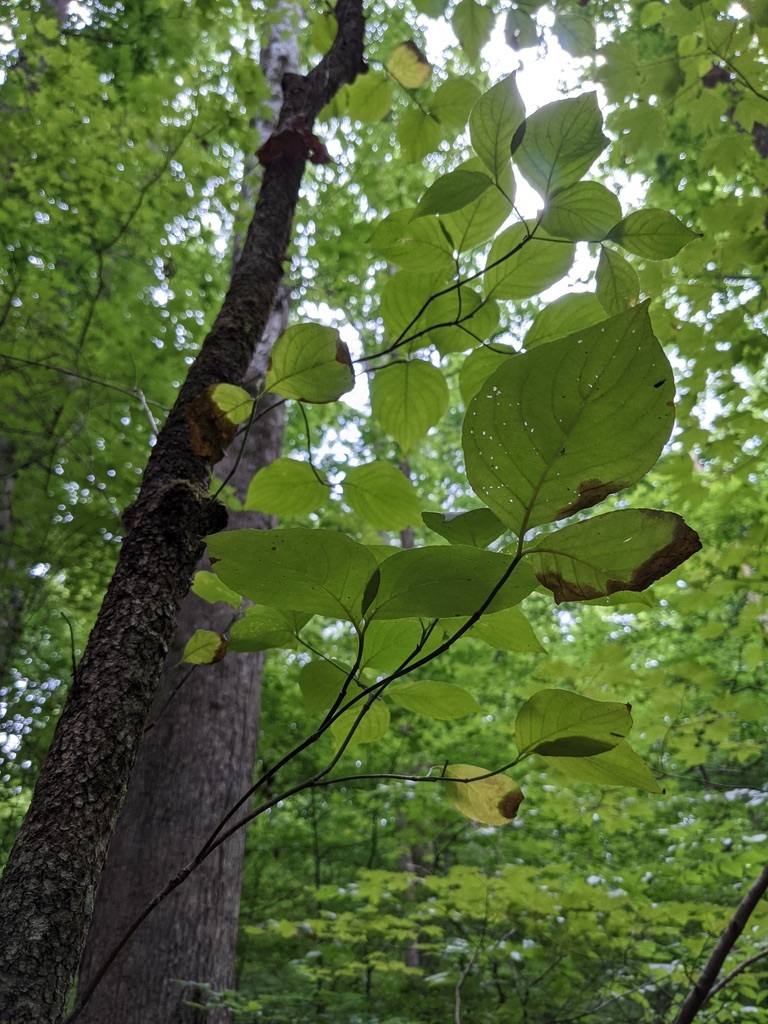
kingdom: Plantae
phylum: Tracheophyta
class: Magnoliopsida
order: Cornales
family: Cornaceae
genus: Cornus
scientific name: Cornus florida
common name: Flowering dogwood
